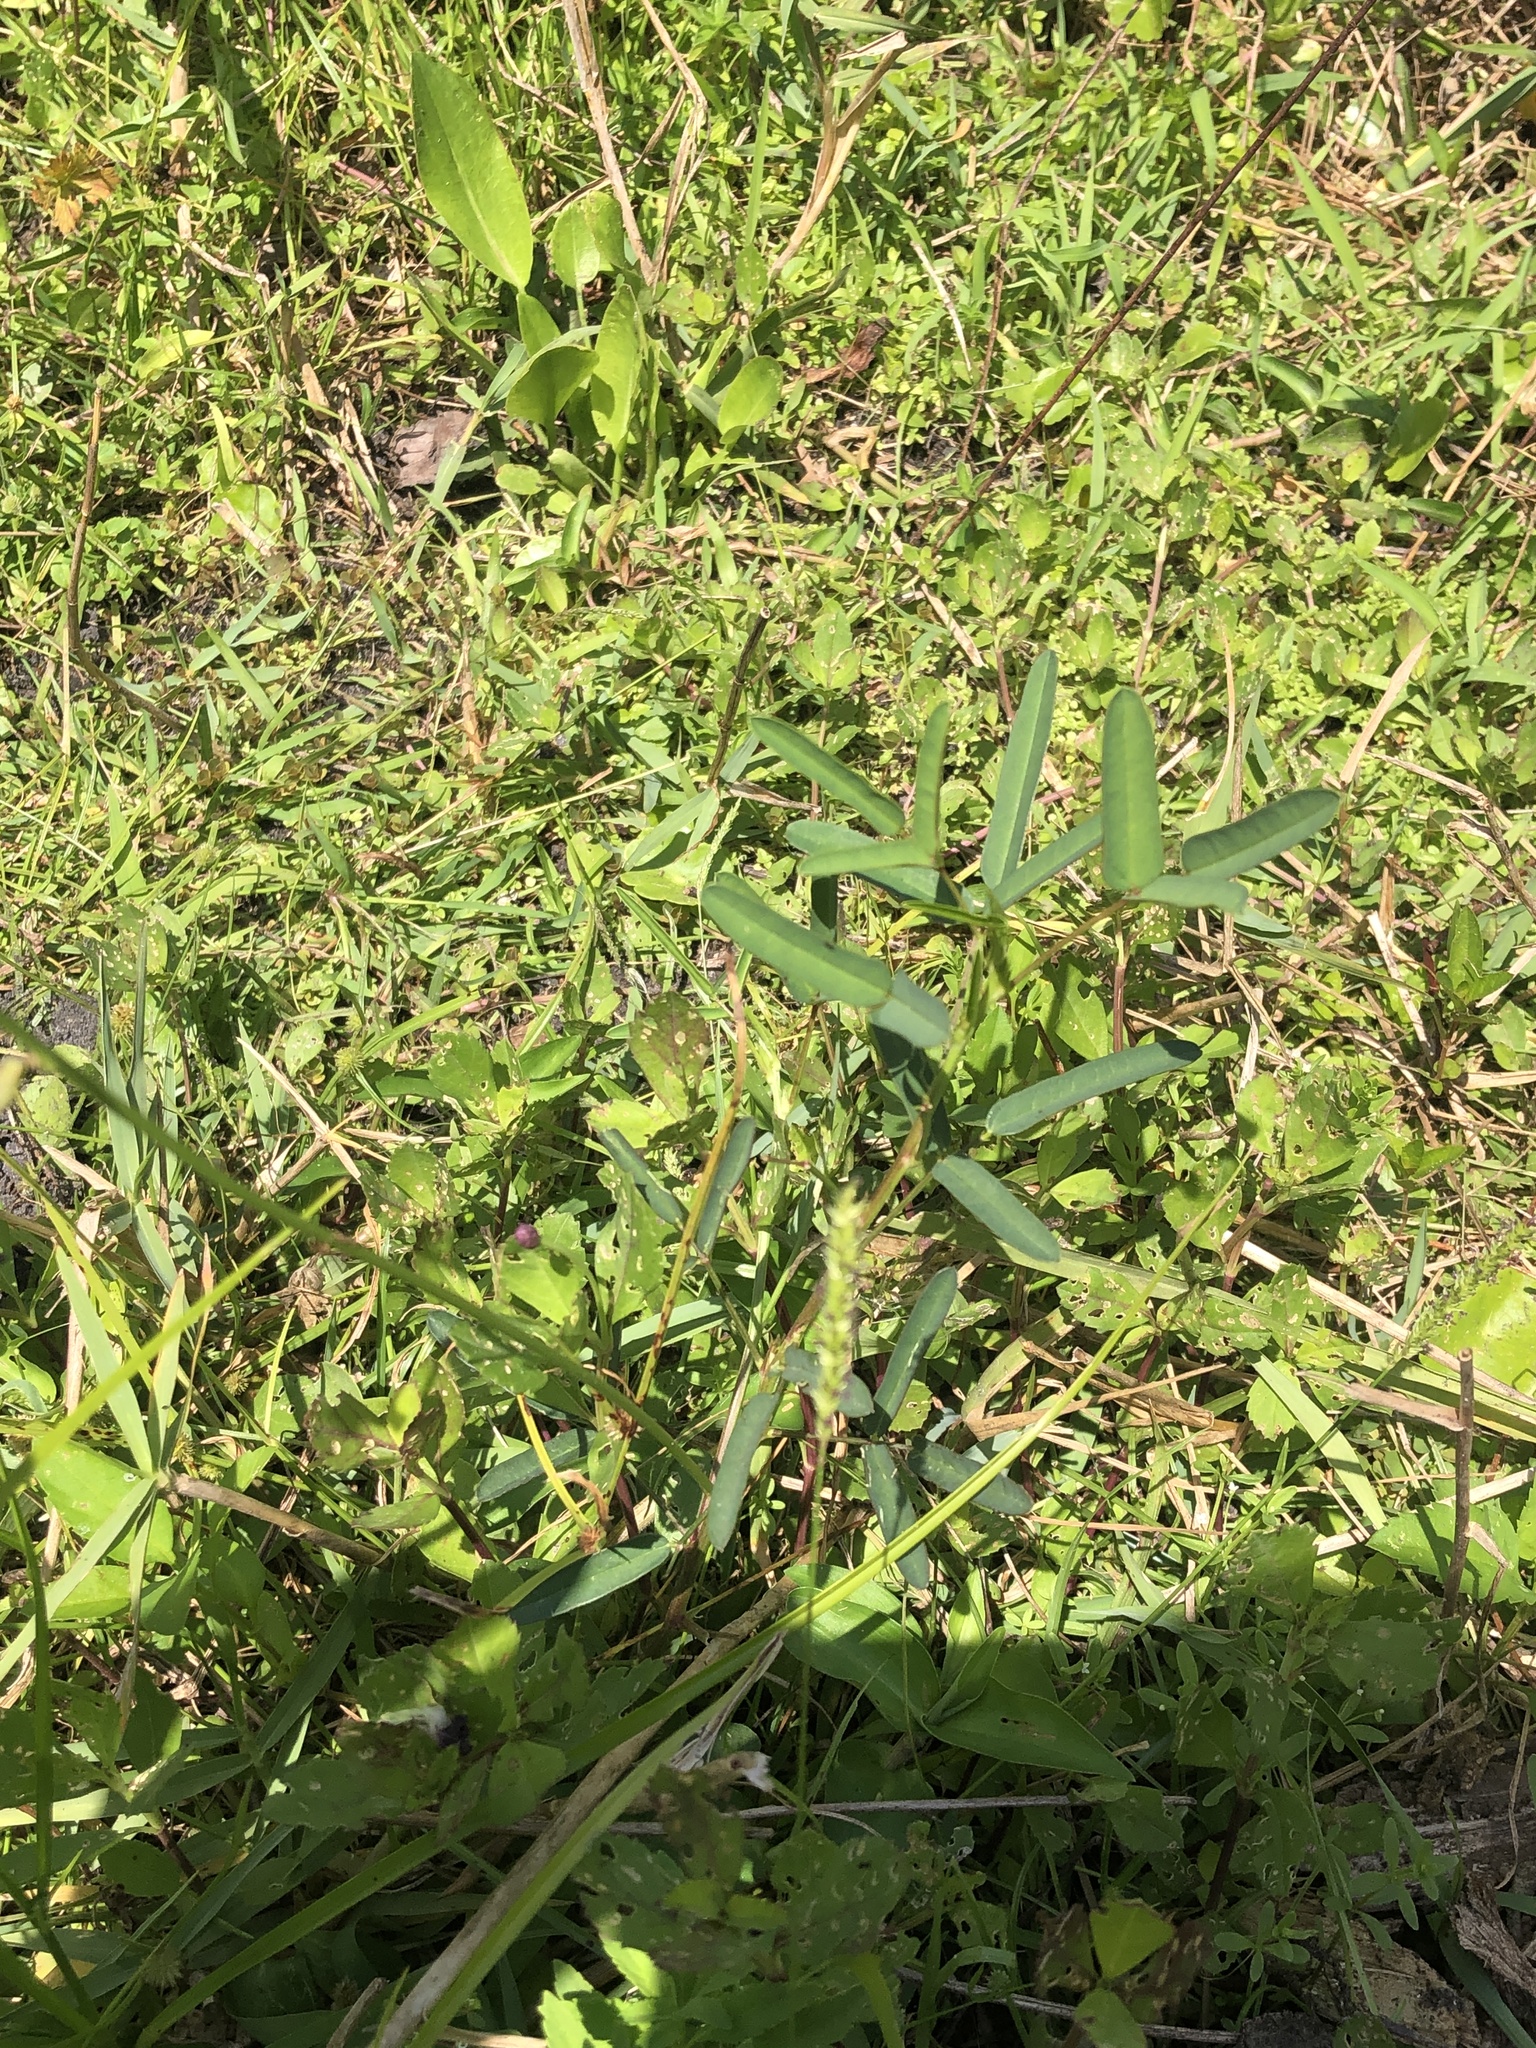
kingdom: Plantae
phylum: Tracheophyta
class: Magnoliopsida
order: Fabales
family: Fabaceae
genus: Macroptilium
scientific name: Macroptilium lathyroides
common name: Wild bushbean
